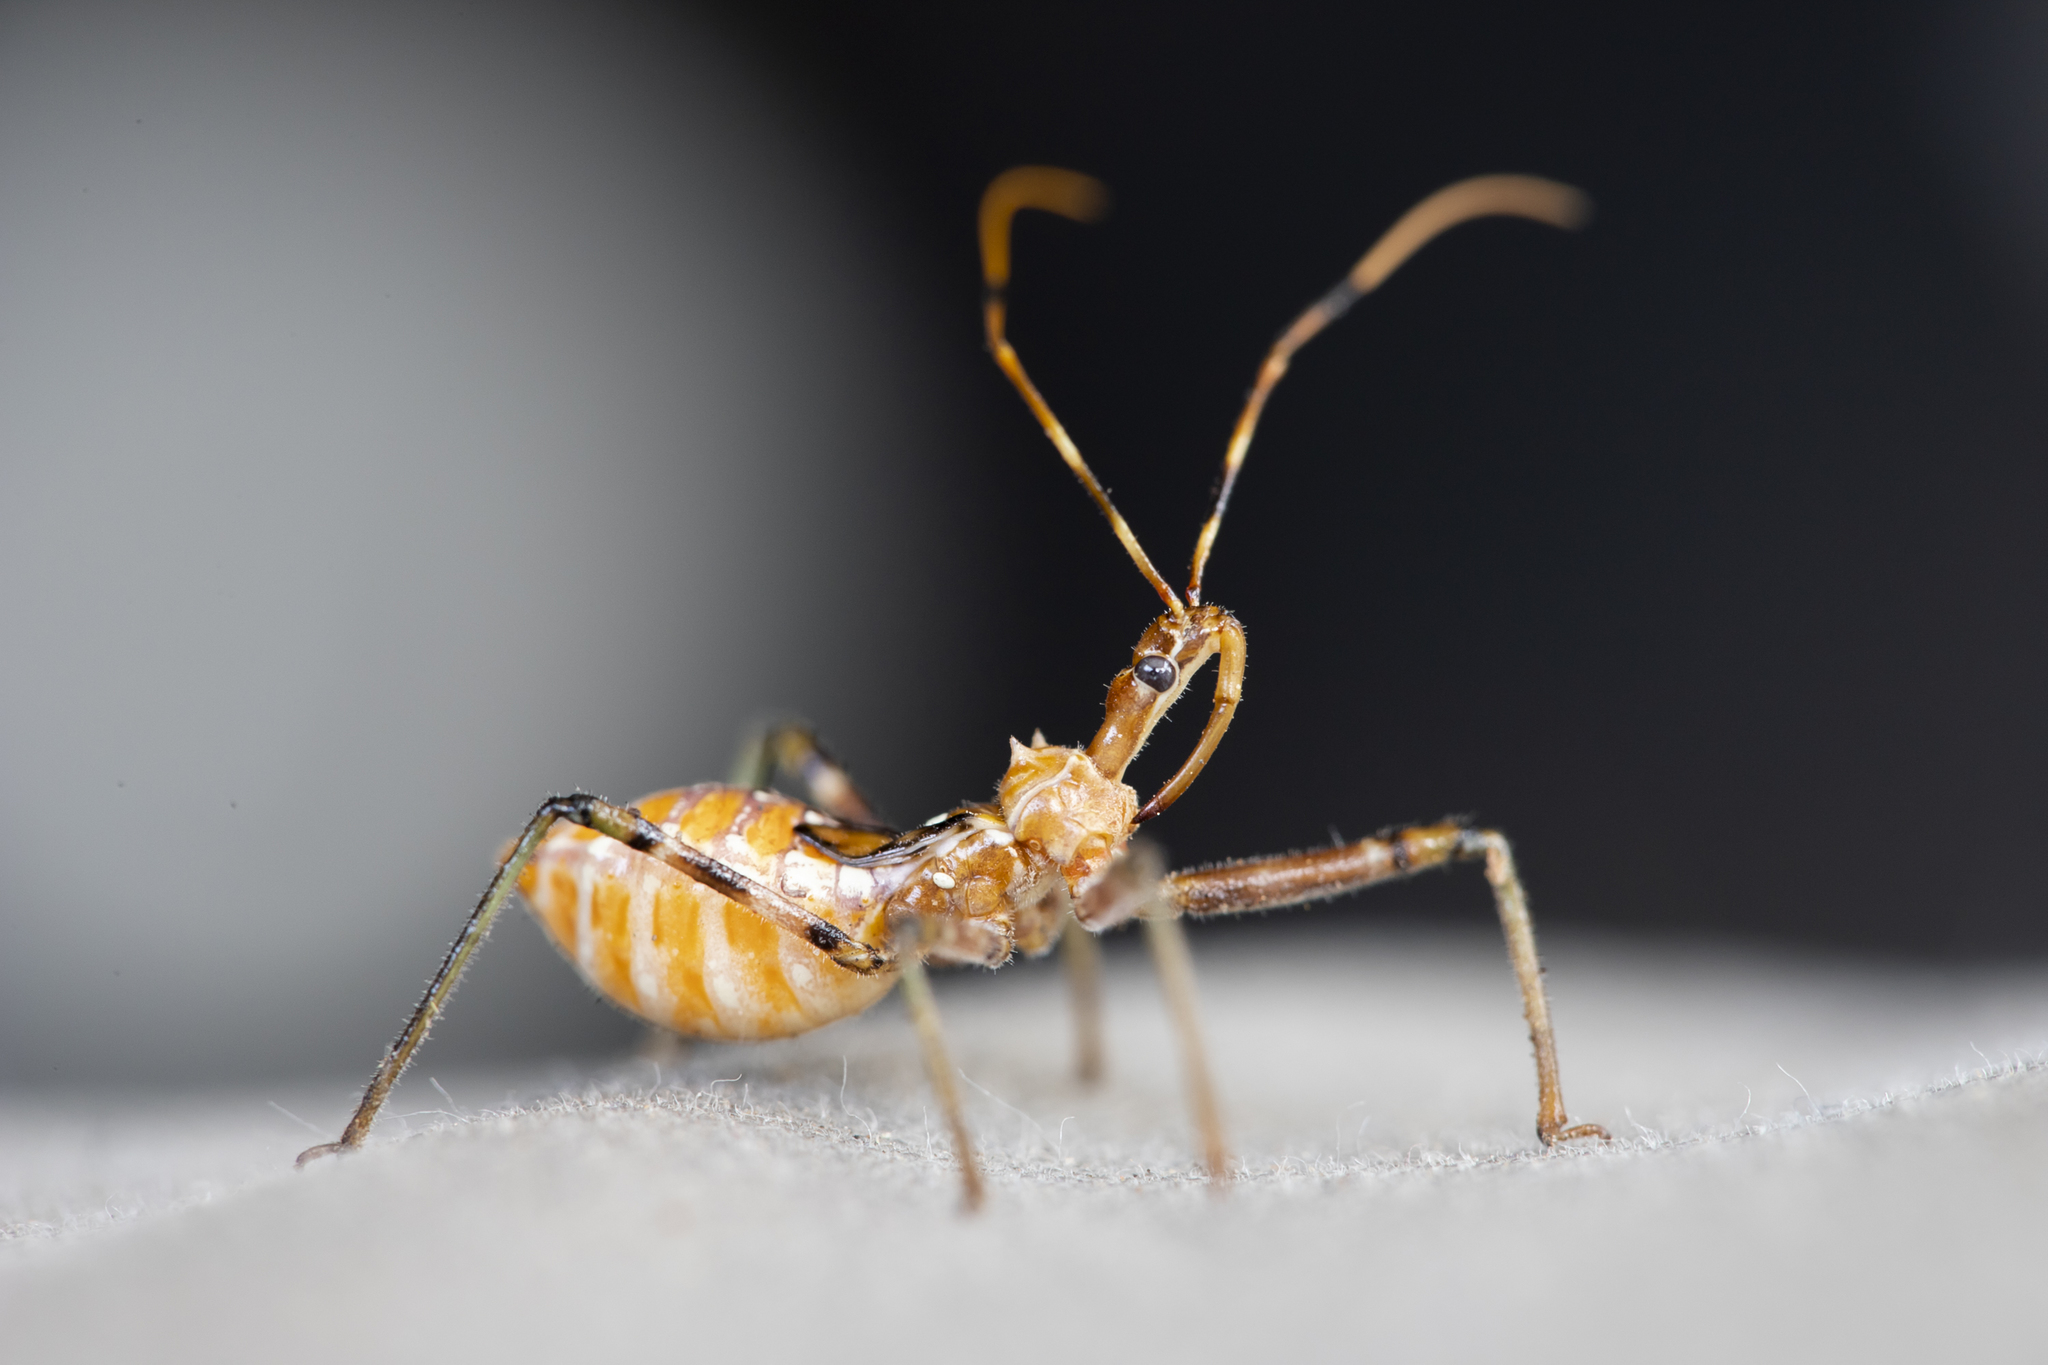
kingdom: Animalia
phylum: Arthropoda
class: Insecta
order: Hemiptera
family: Reduviidae
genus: Pristhesancus
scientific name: Pristhesancus plagipennis
